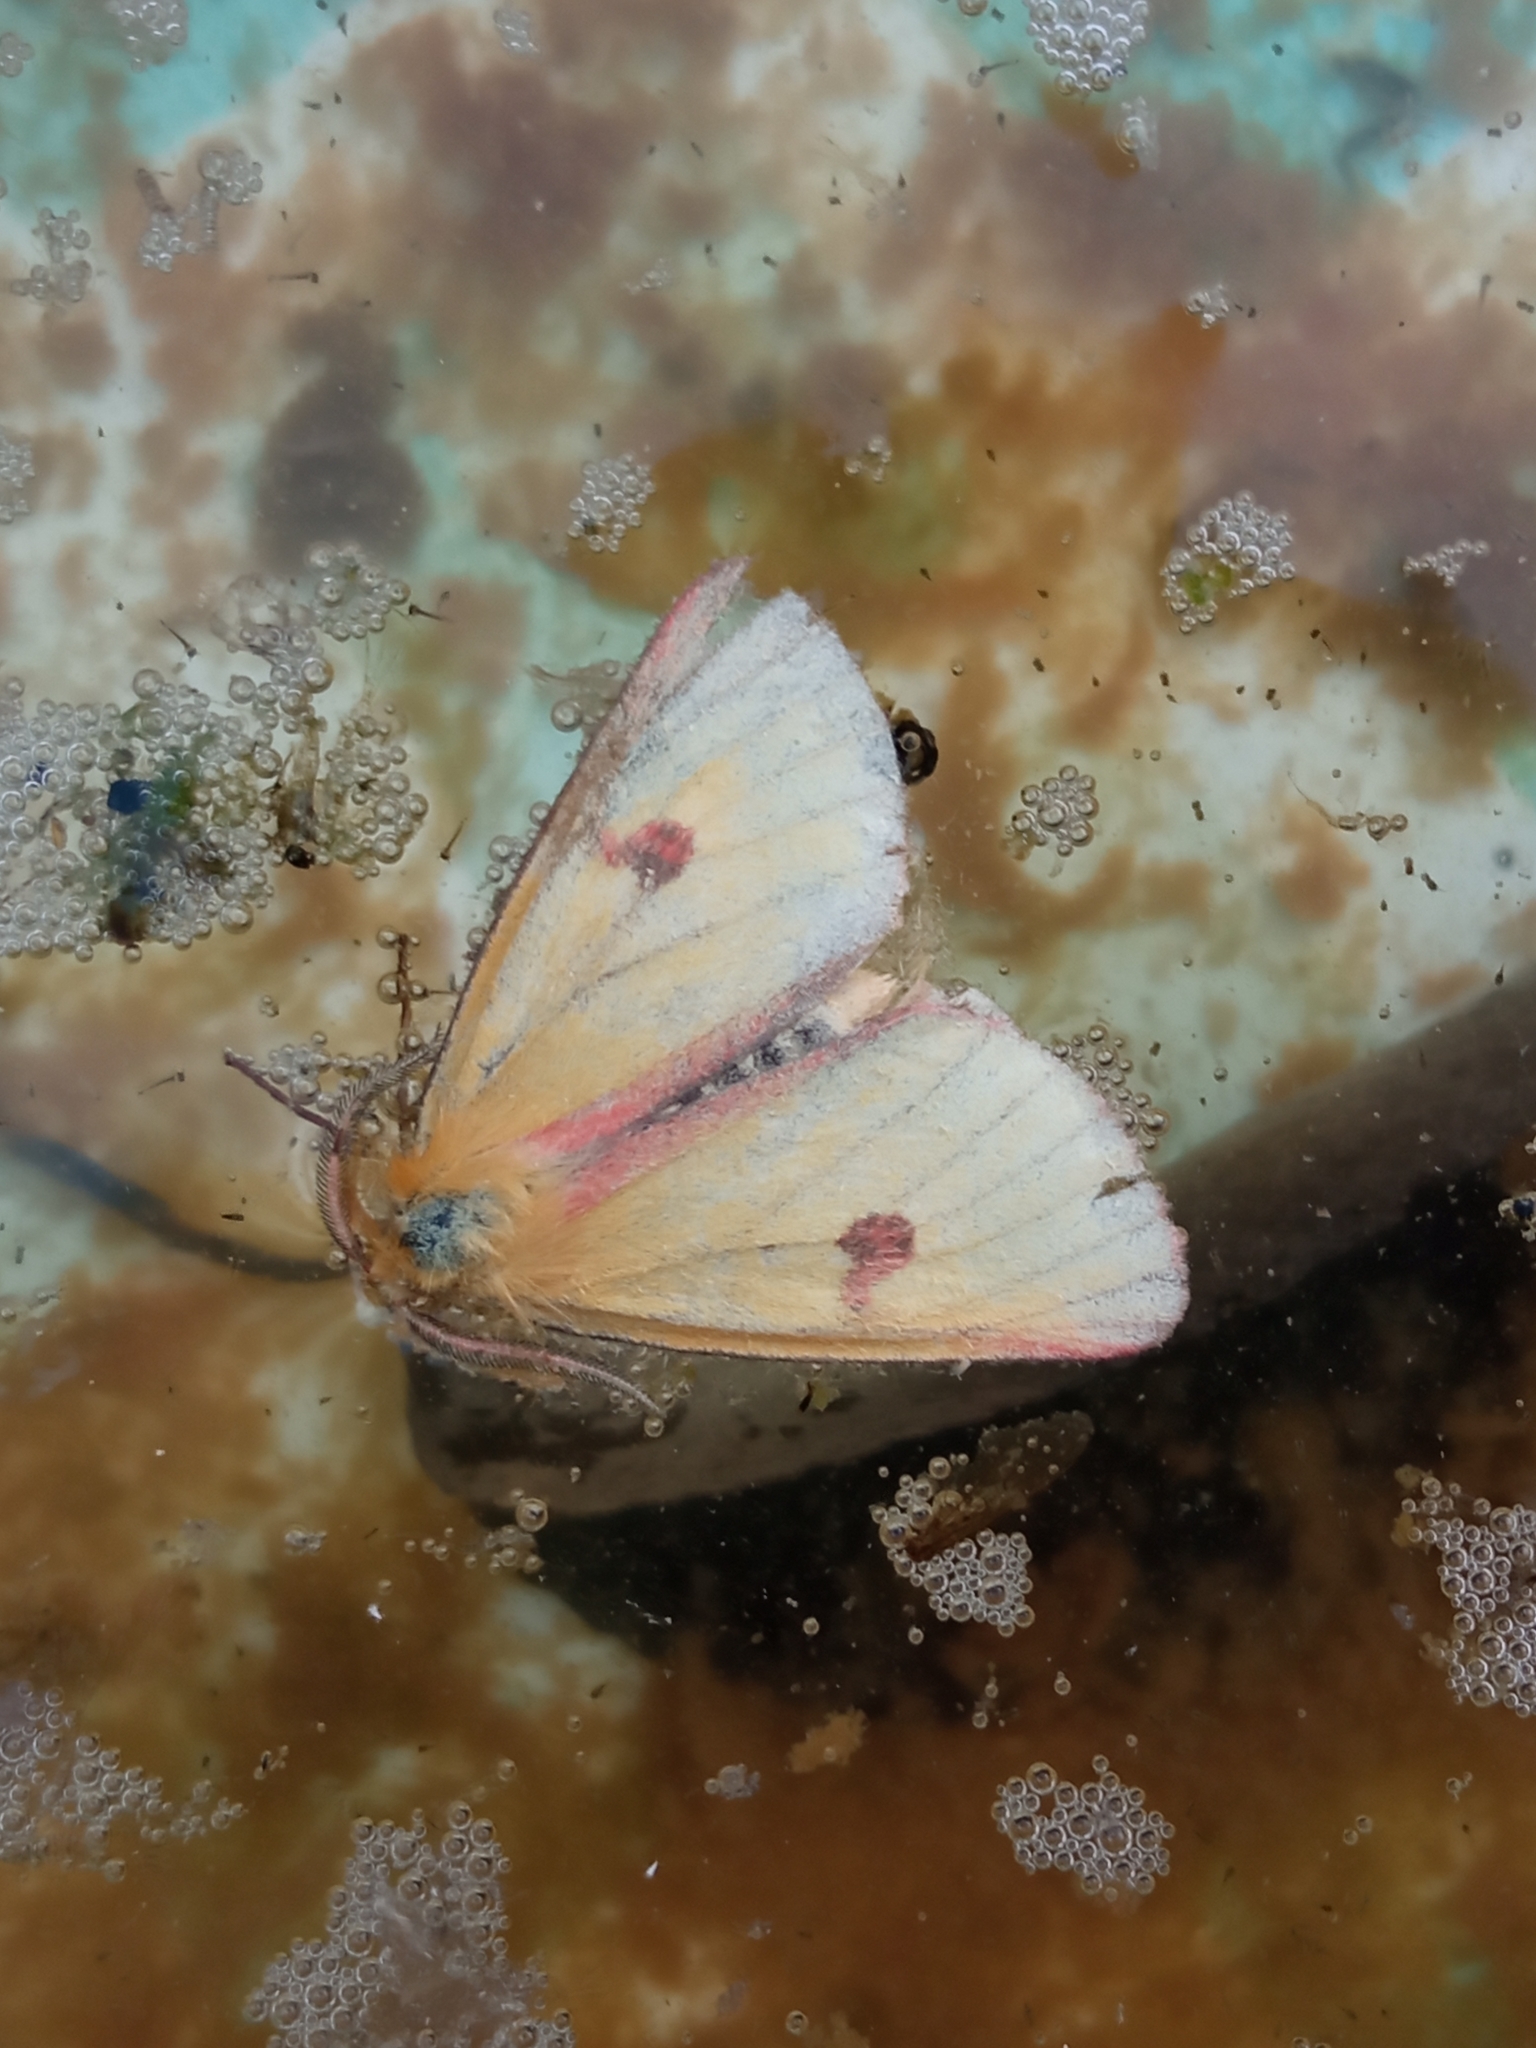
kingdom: Animalia
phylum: Arthropoda
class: Insecta
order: Lepidoptera
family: Erebidae
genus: Diacrisia
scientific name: Diacrisia sannio
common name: Clouded buff
